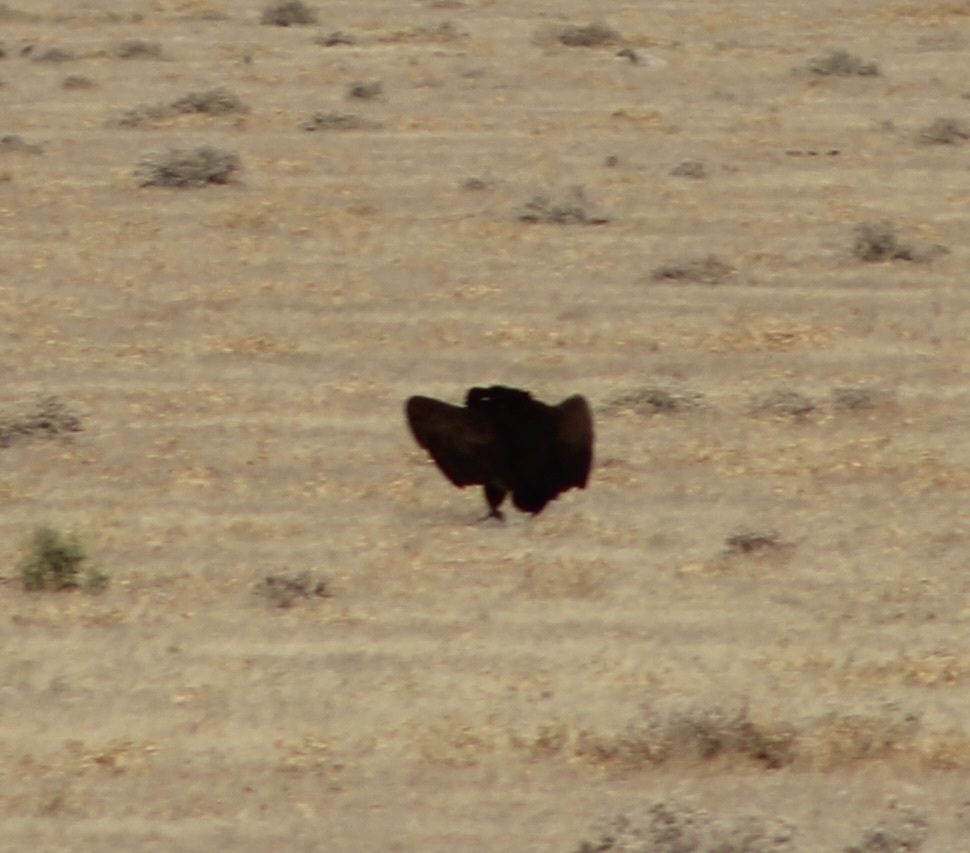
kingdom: Animalia
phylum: Chordata
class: Aves
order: Accipitriformes
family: Accipitridae
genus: Torgos
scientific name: Torgos tracheliotos
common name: Lappet-faced vulture
